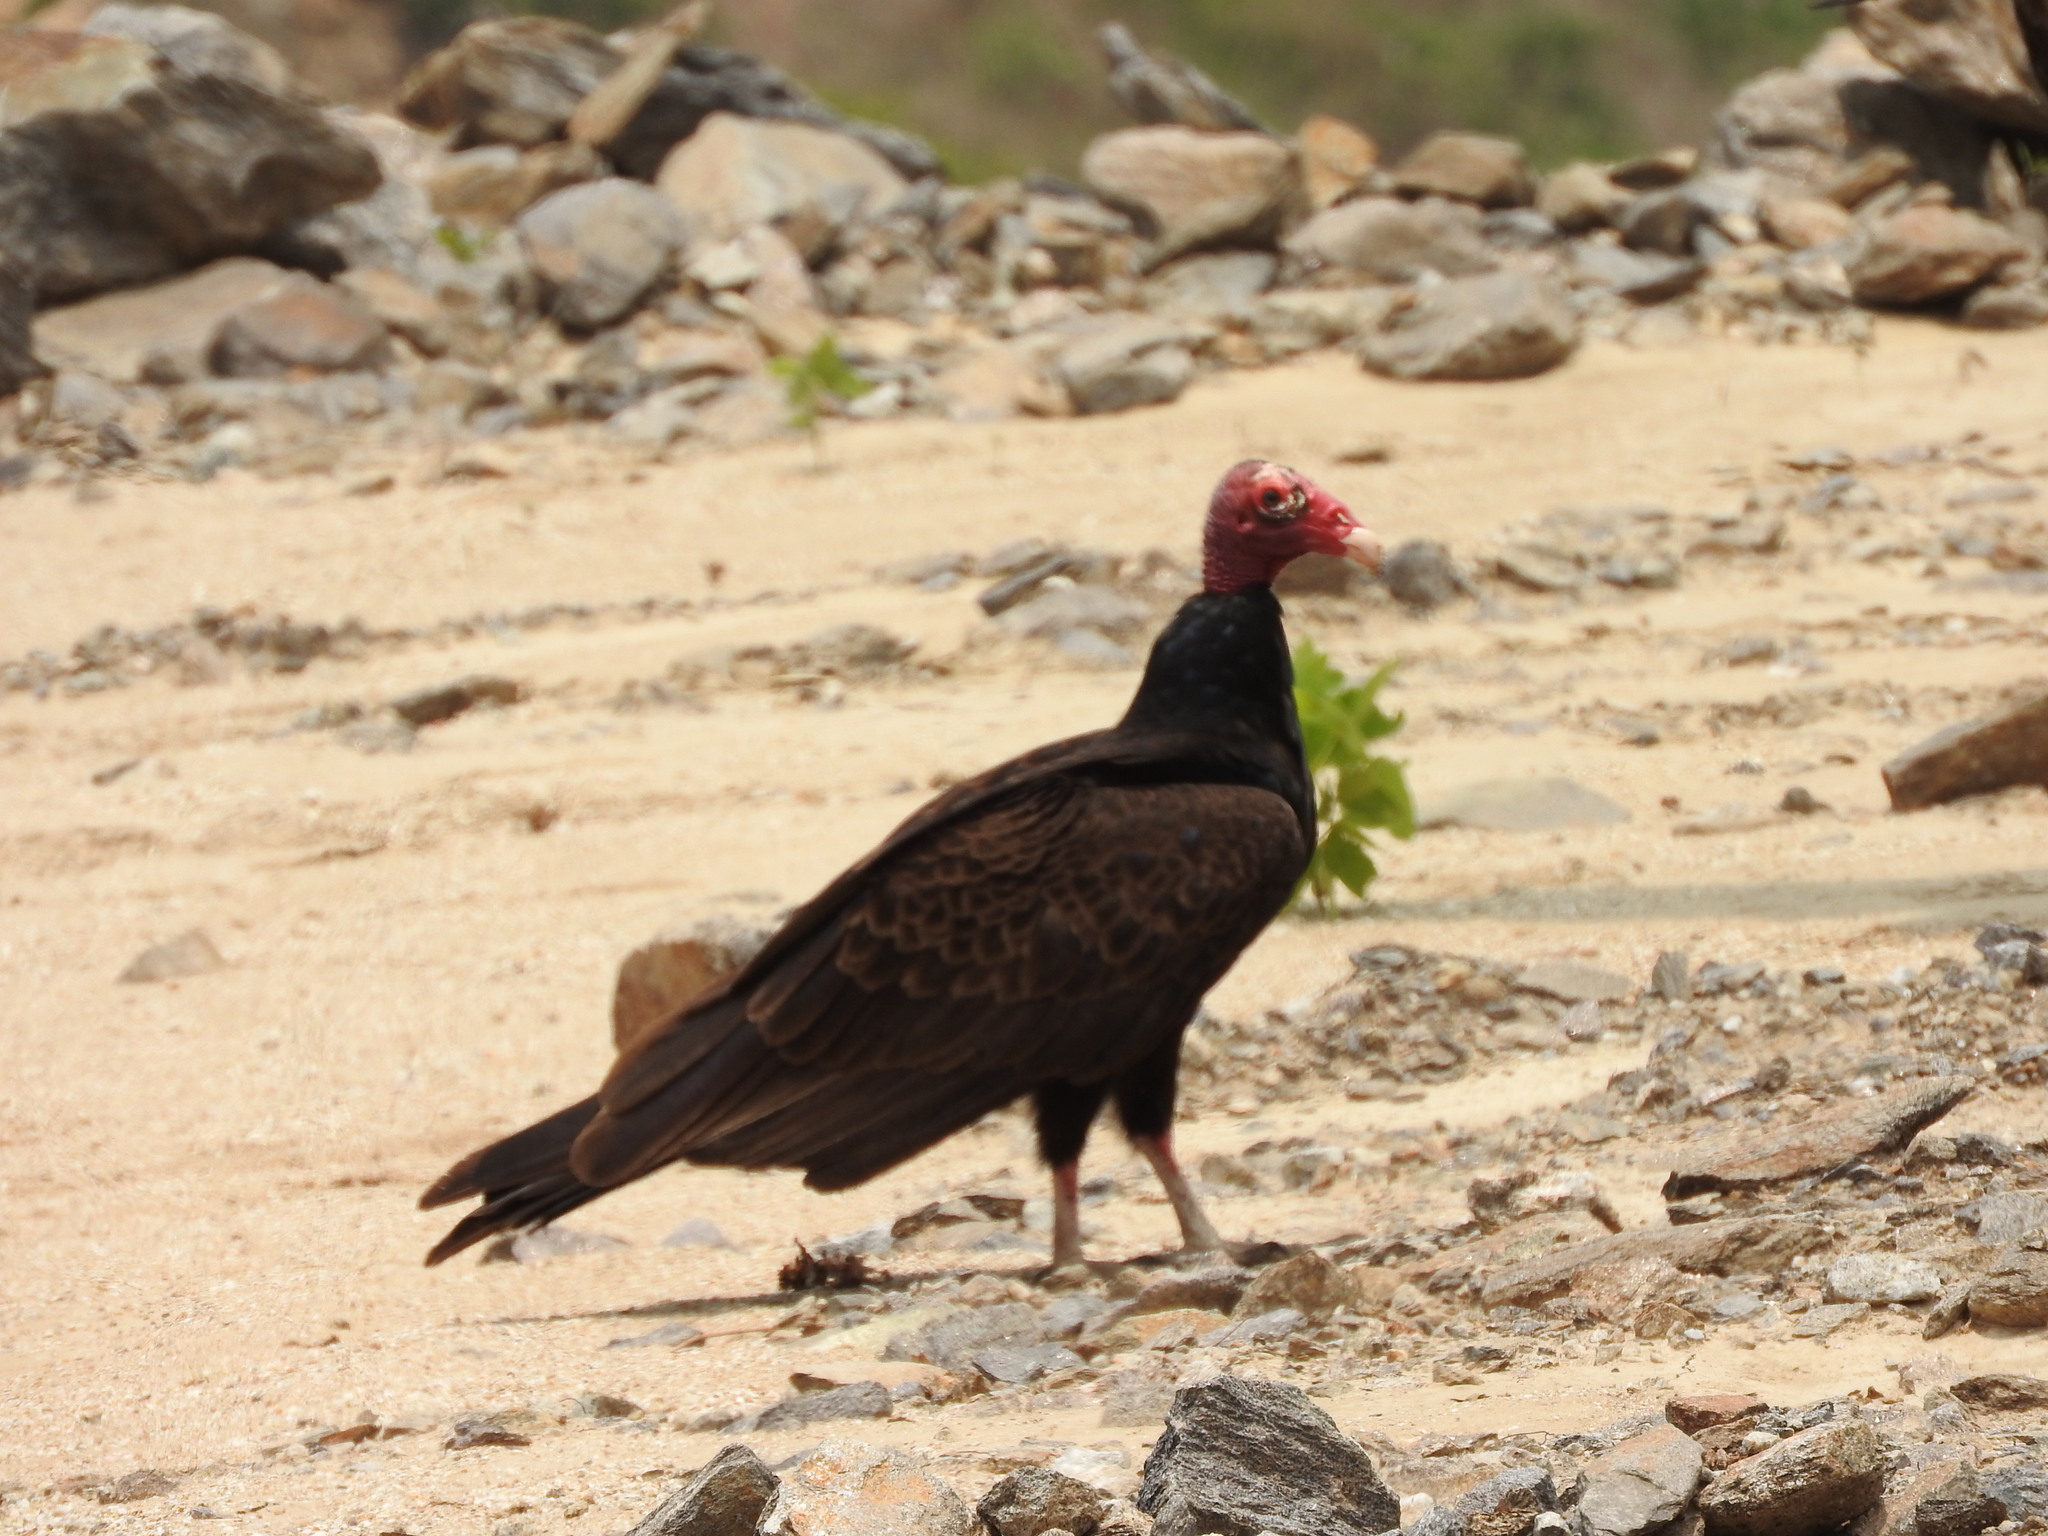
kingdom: Animalia
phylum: Chordata
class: Aves
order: Accipitriformes
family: Cathartidae
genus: Cathartes
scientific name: Cathartes aura
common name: Turkey vulture
